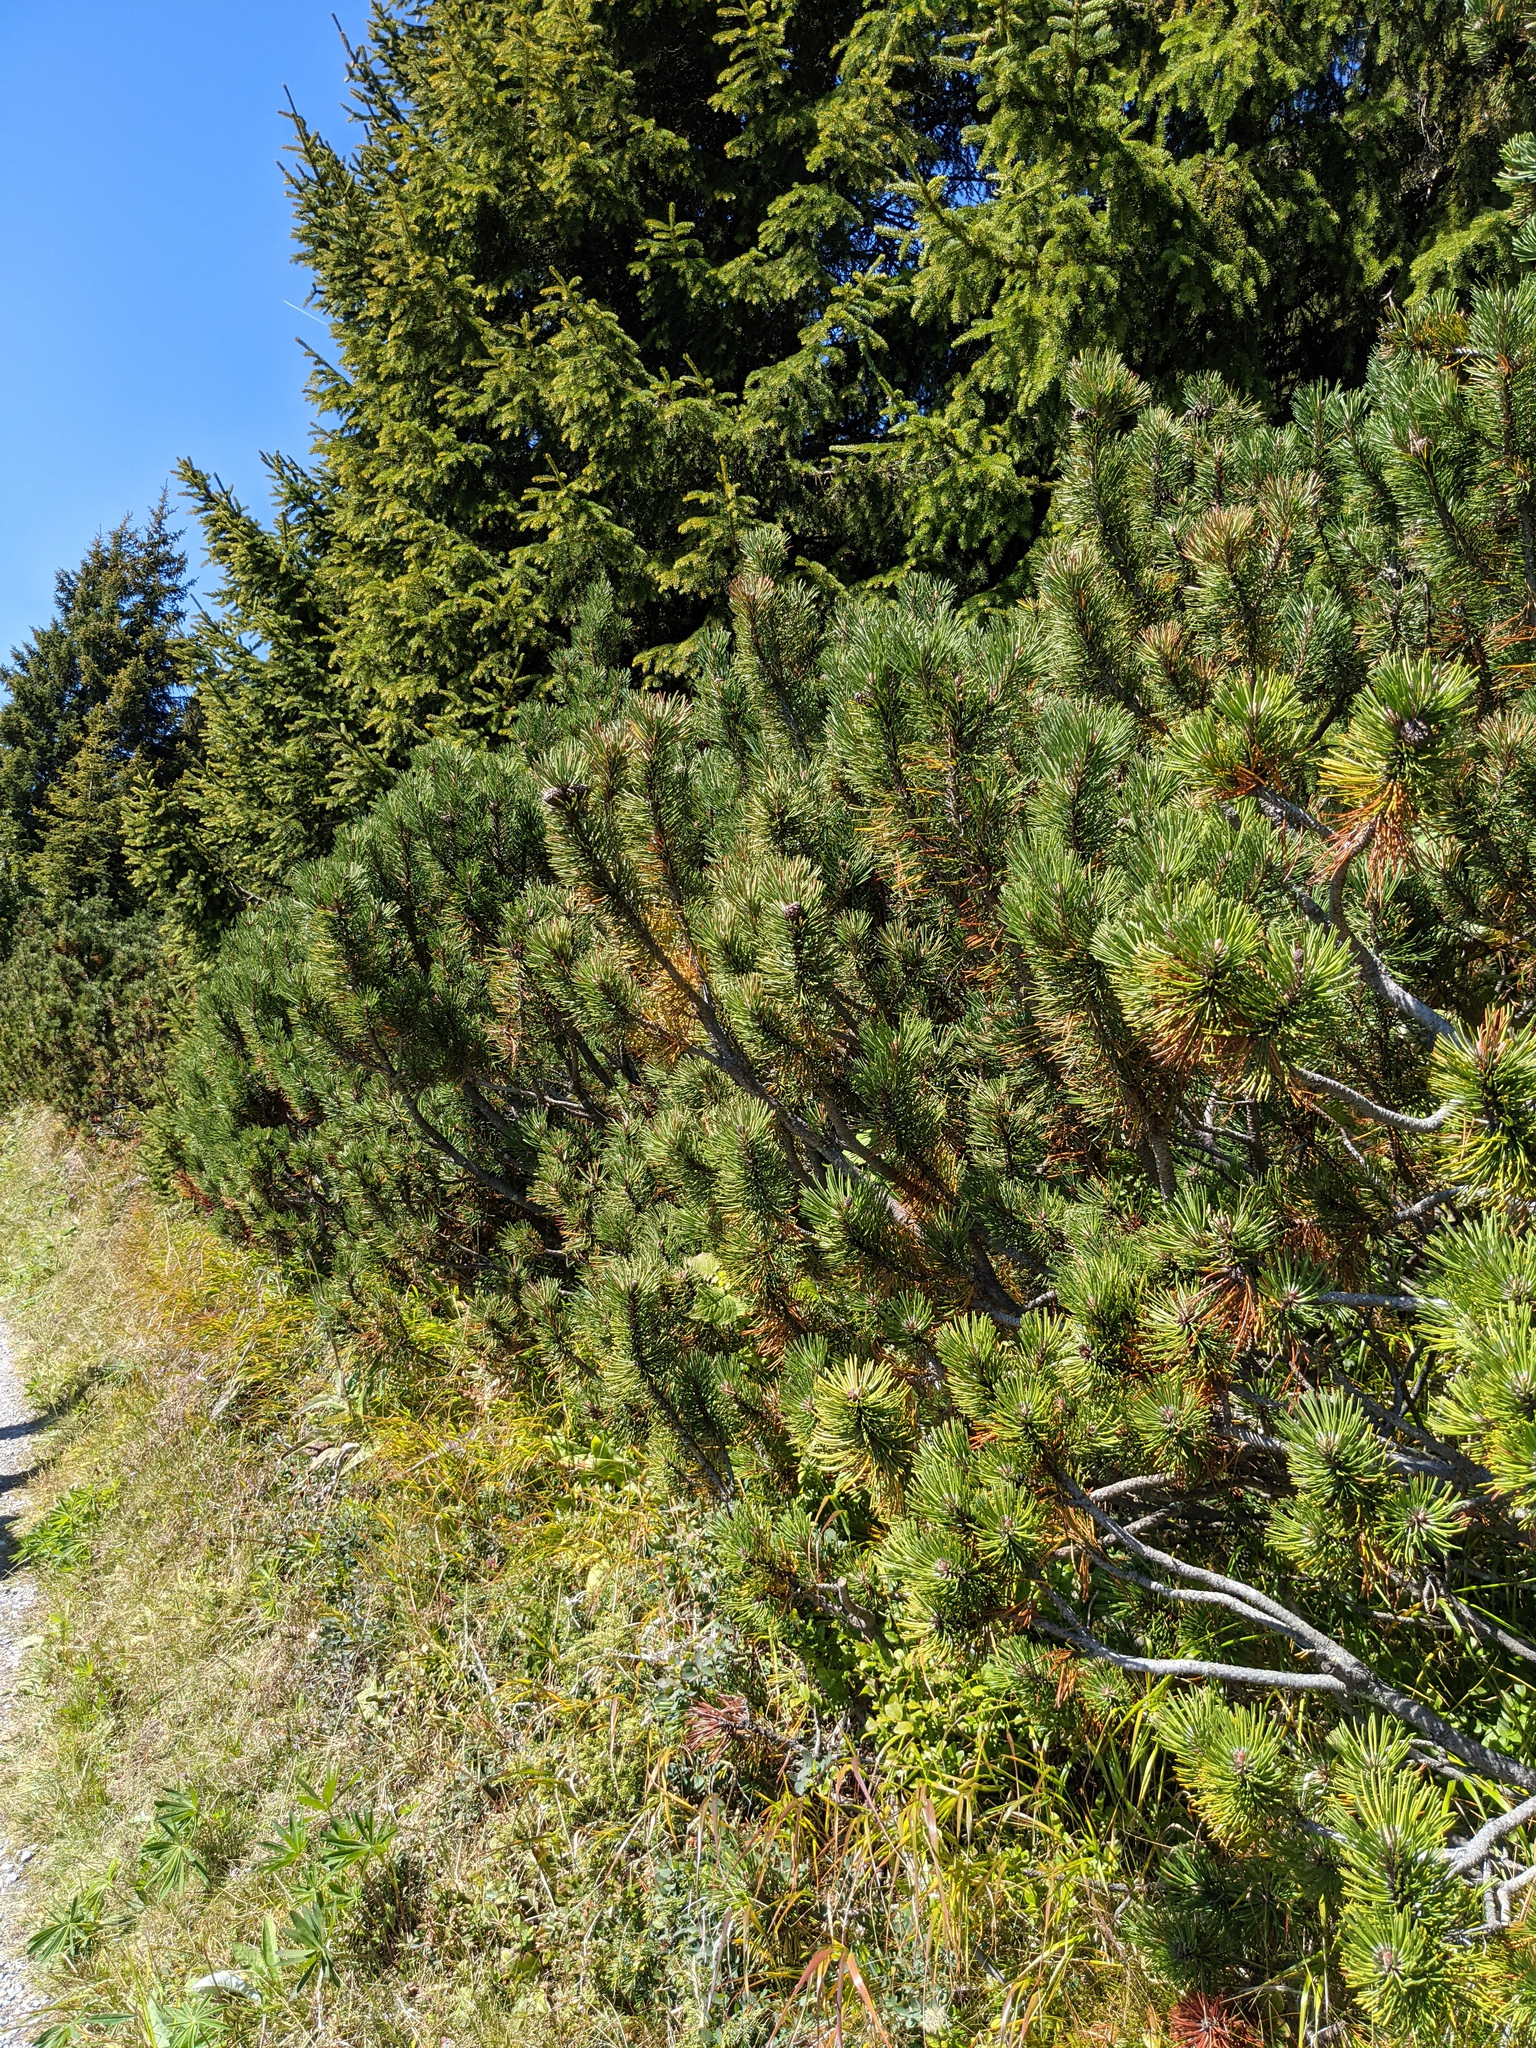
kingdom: Plantae
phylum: Tracheophyta
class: Pinopsida
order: Pinales
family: Pinaceae
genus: Pinus
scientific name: Pinus mugo
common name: Mugo pine
